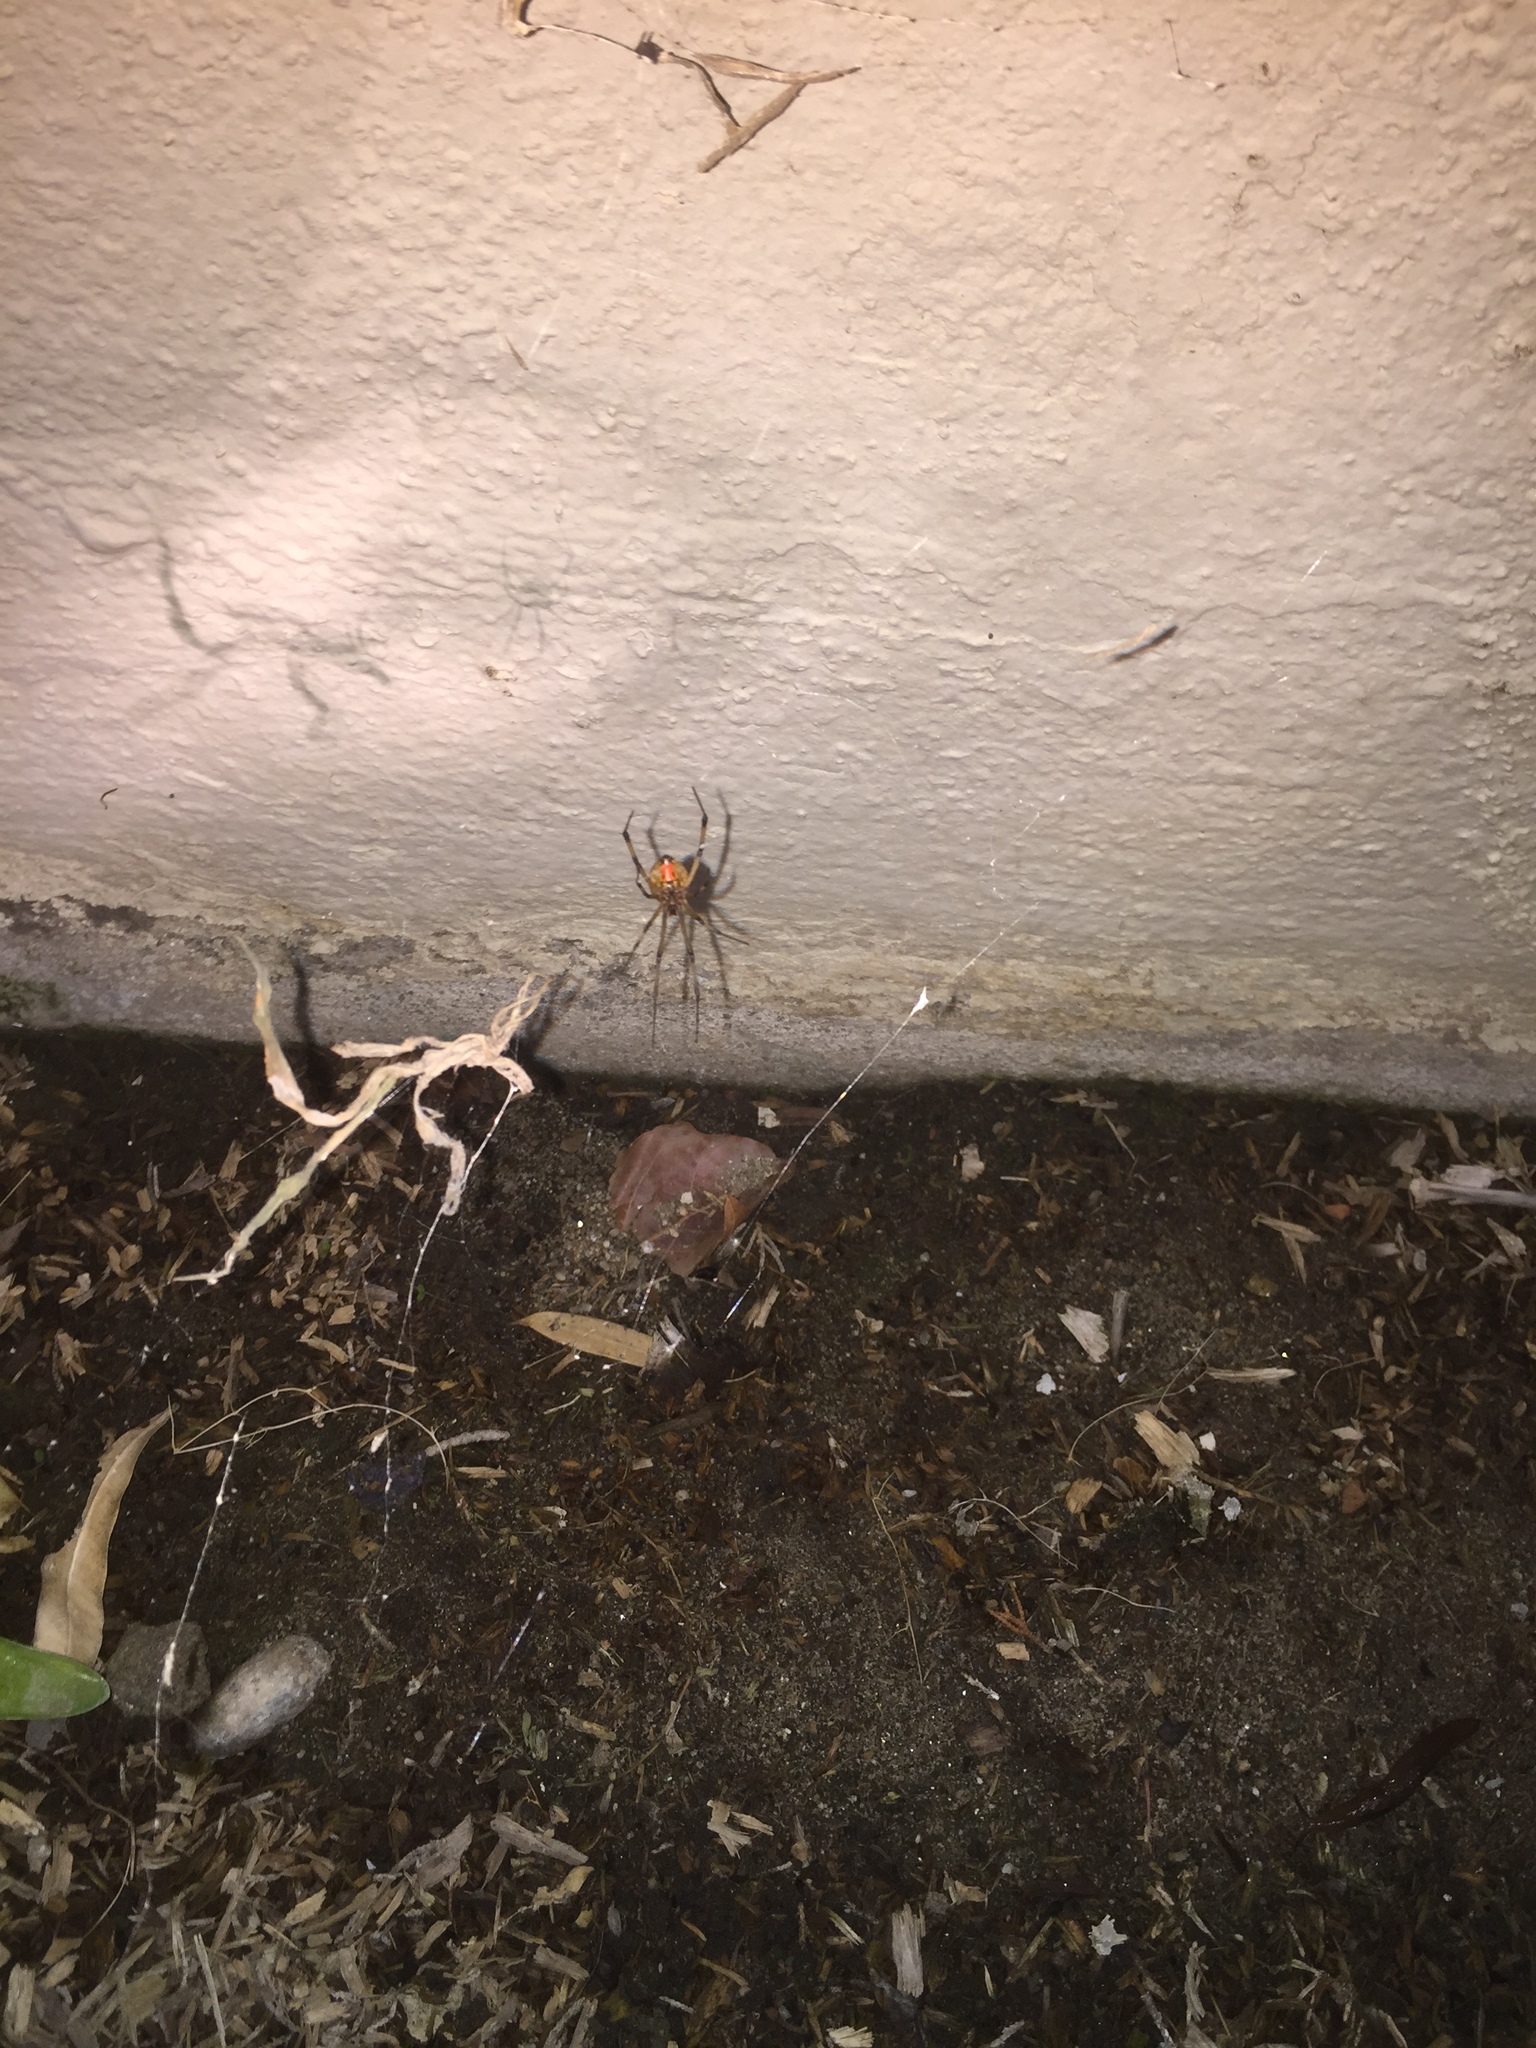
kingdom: Animalia
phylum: Arthropoda
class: Arachnida
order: Araneae
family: Theridiidae
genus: Latrodectus
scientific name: Latrodectus geometricus
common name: Brown widow spider
